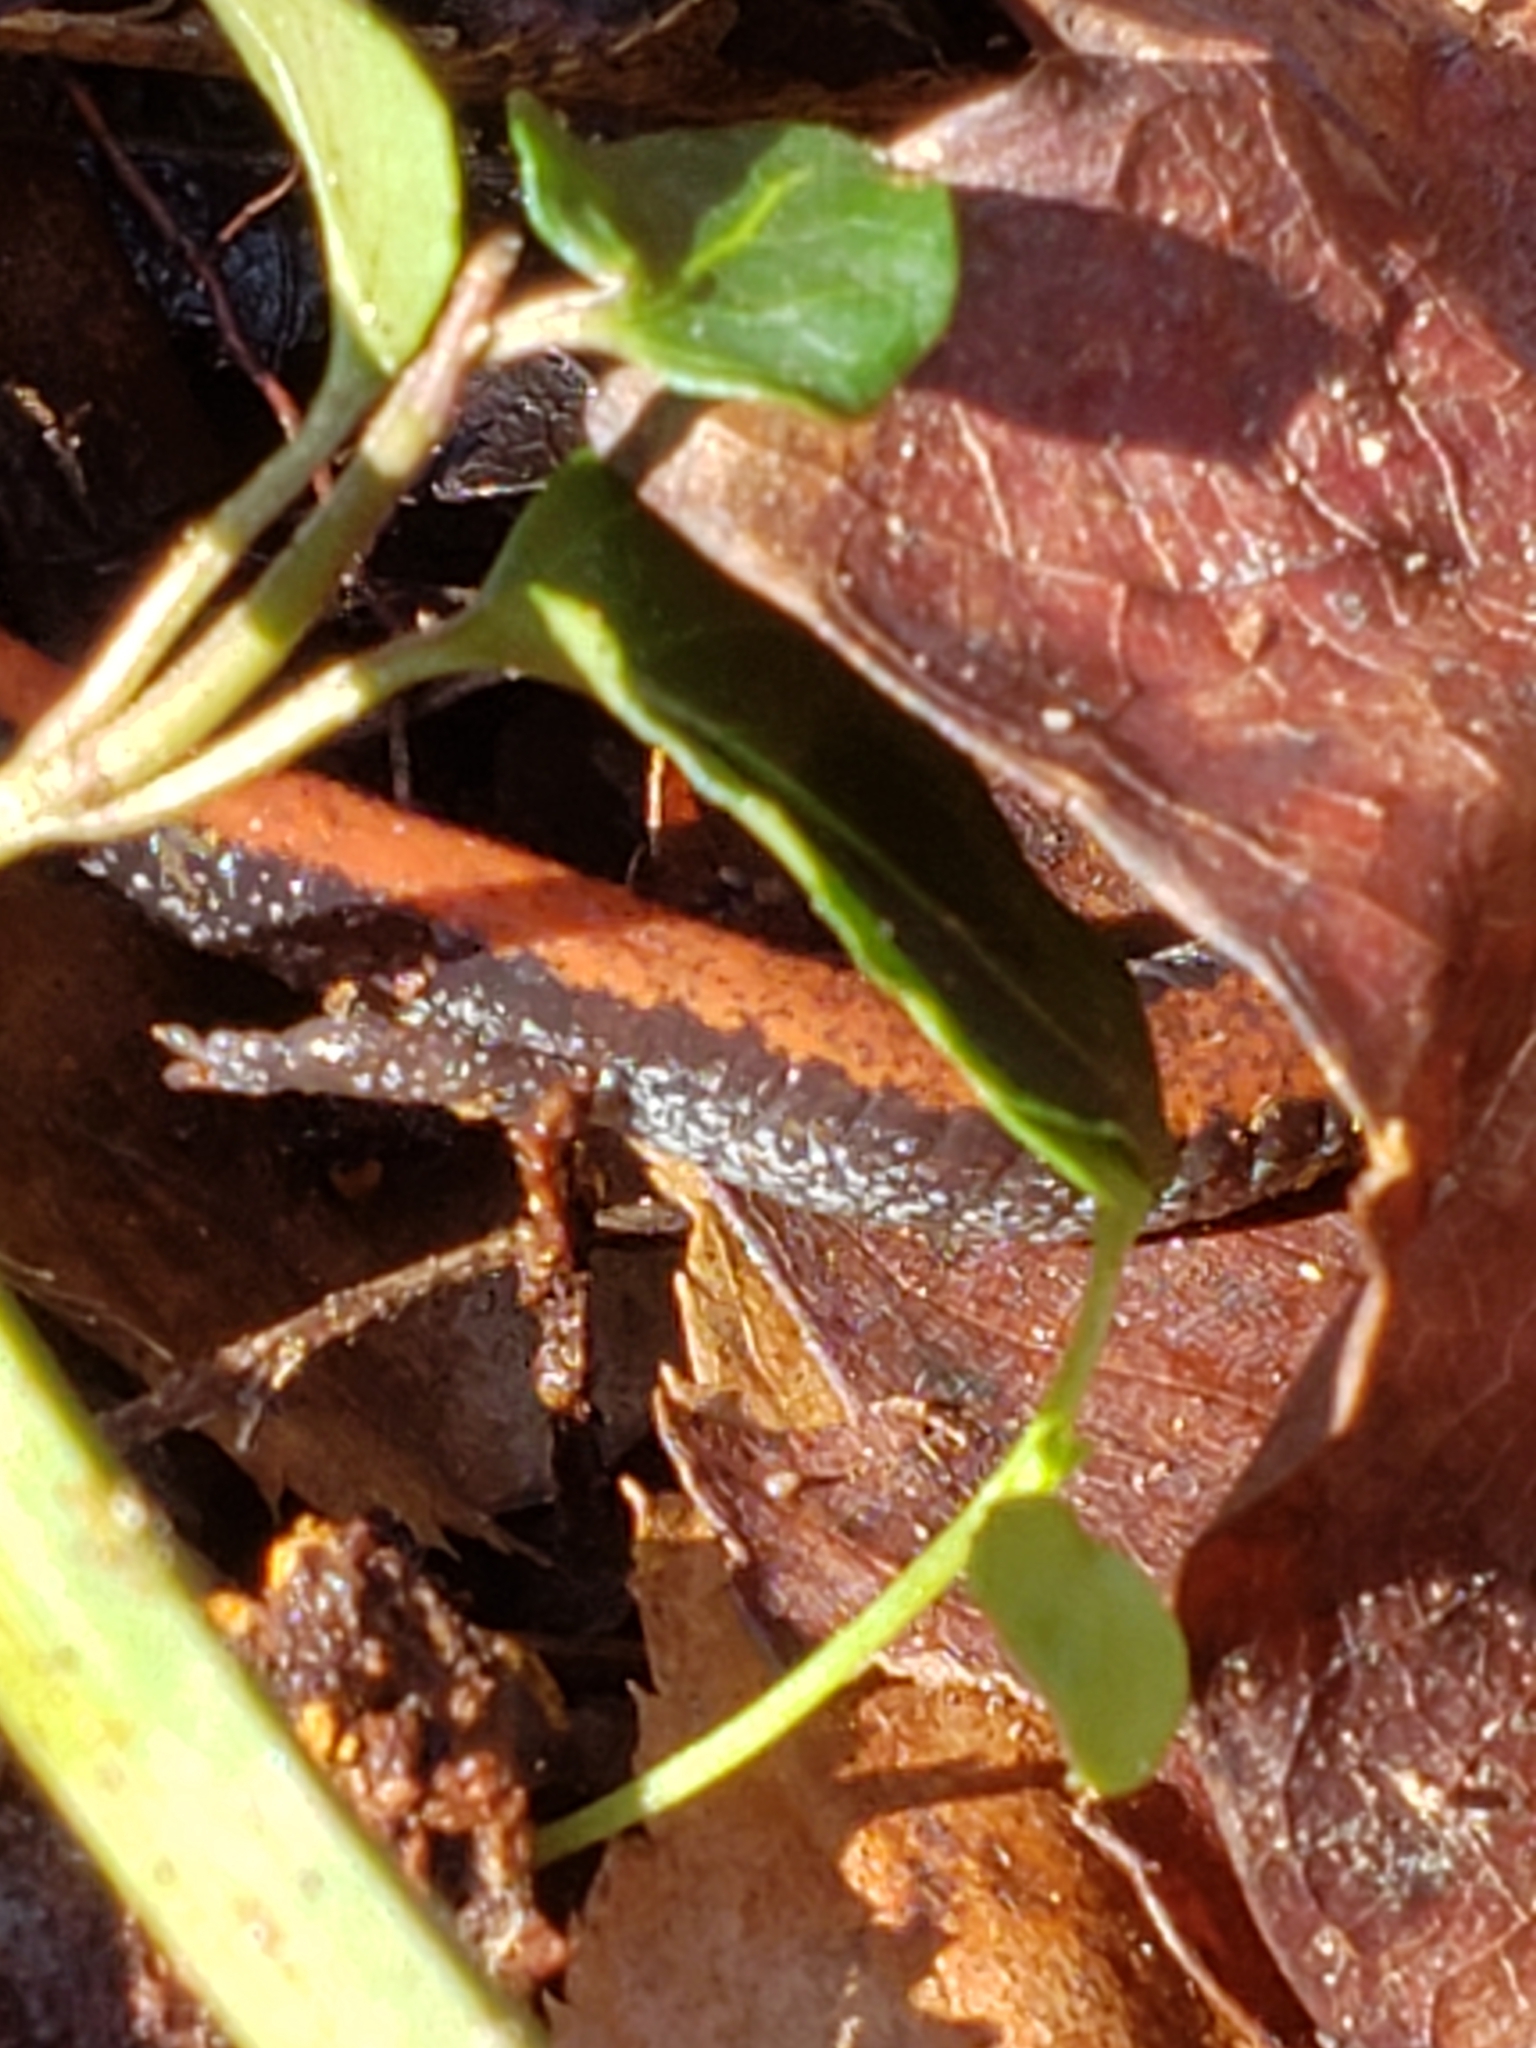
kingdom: Animalia
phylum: Chordata
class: Amphibia
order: Caudata
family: Plethodontidae
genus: Plethodon
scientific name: Plethodon cinereus
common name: Redback salamander
